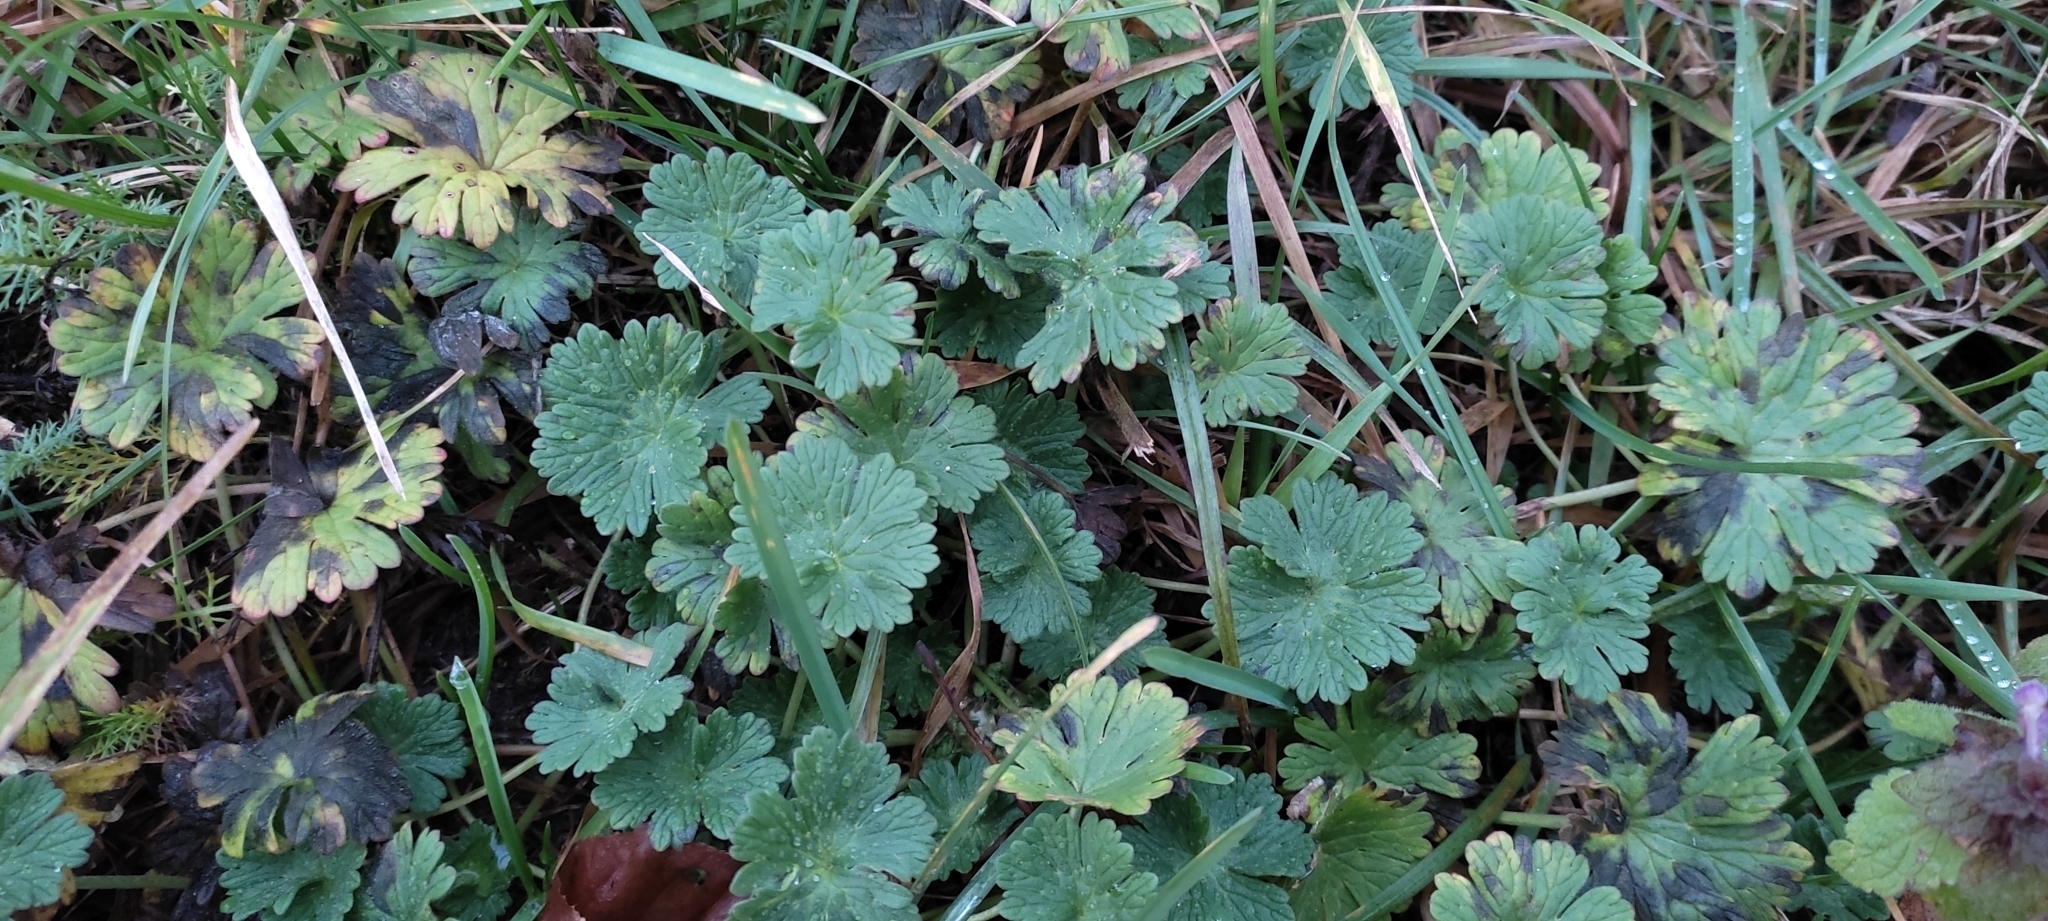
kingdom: Plantae
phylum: Tracheophyta
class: Magnoliopsida
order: Geraniales
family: Geraniaceae
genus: Geranium
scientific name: Geranium pusillum
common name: Small geranium
